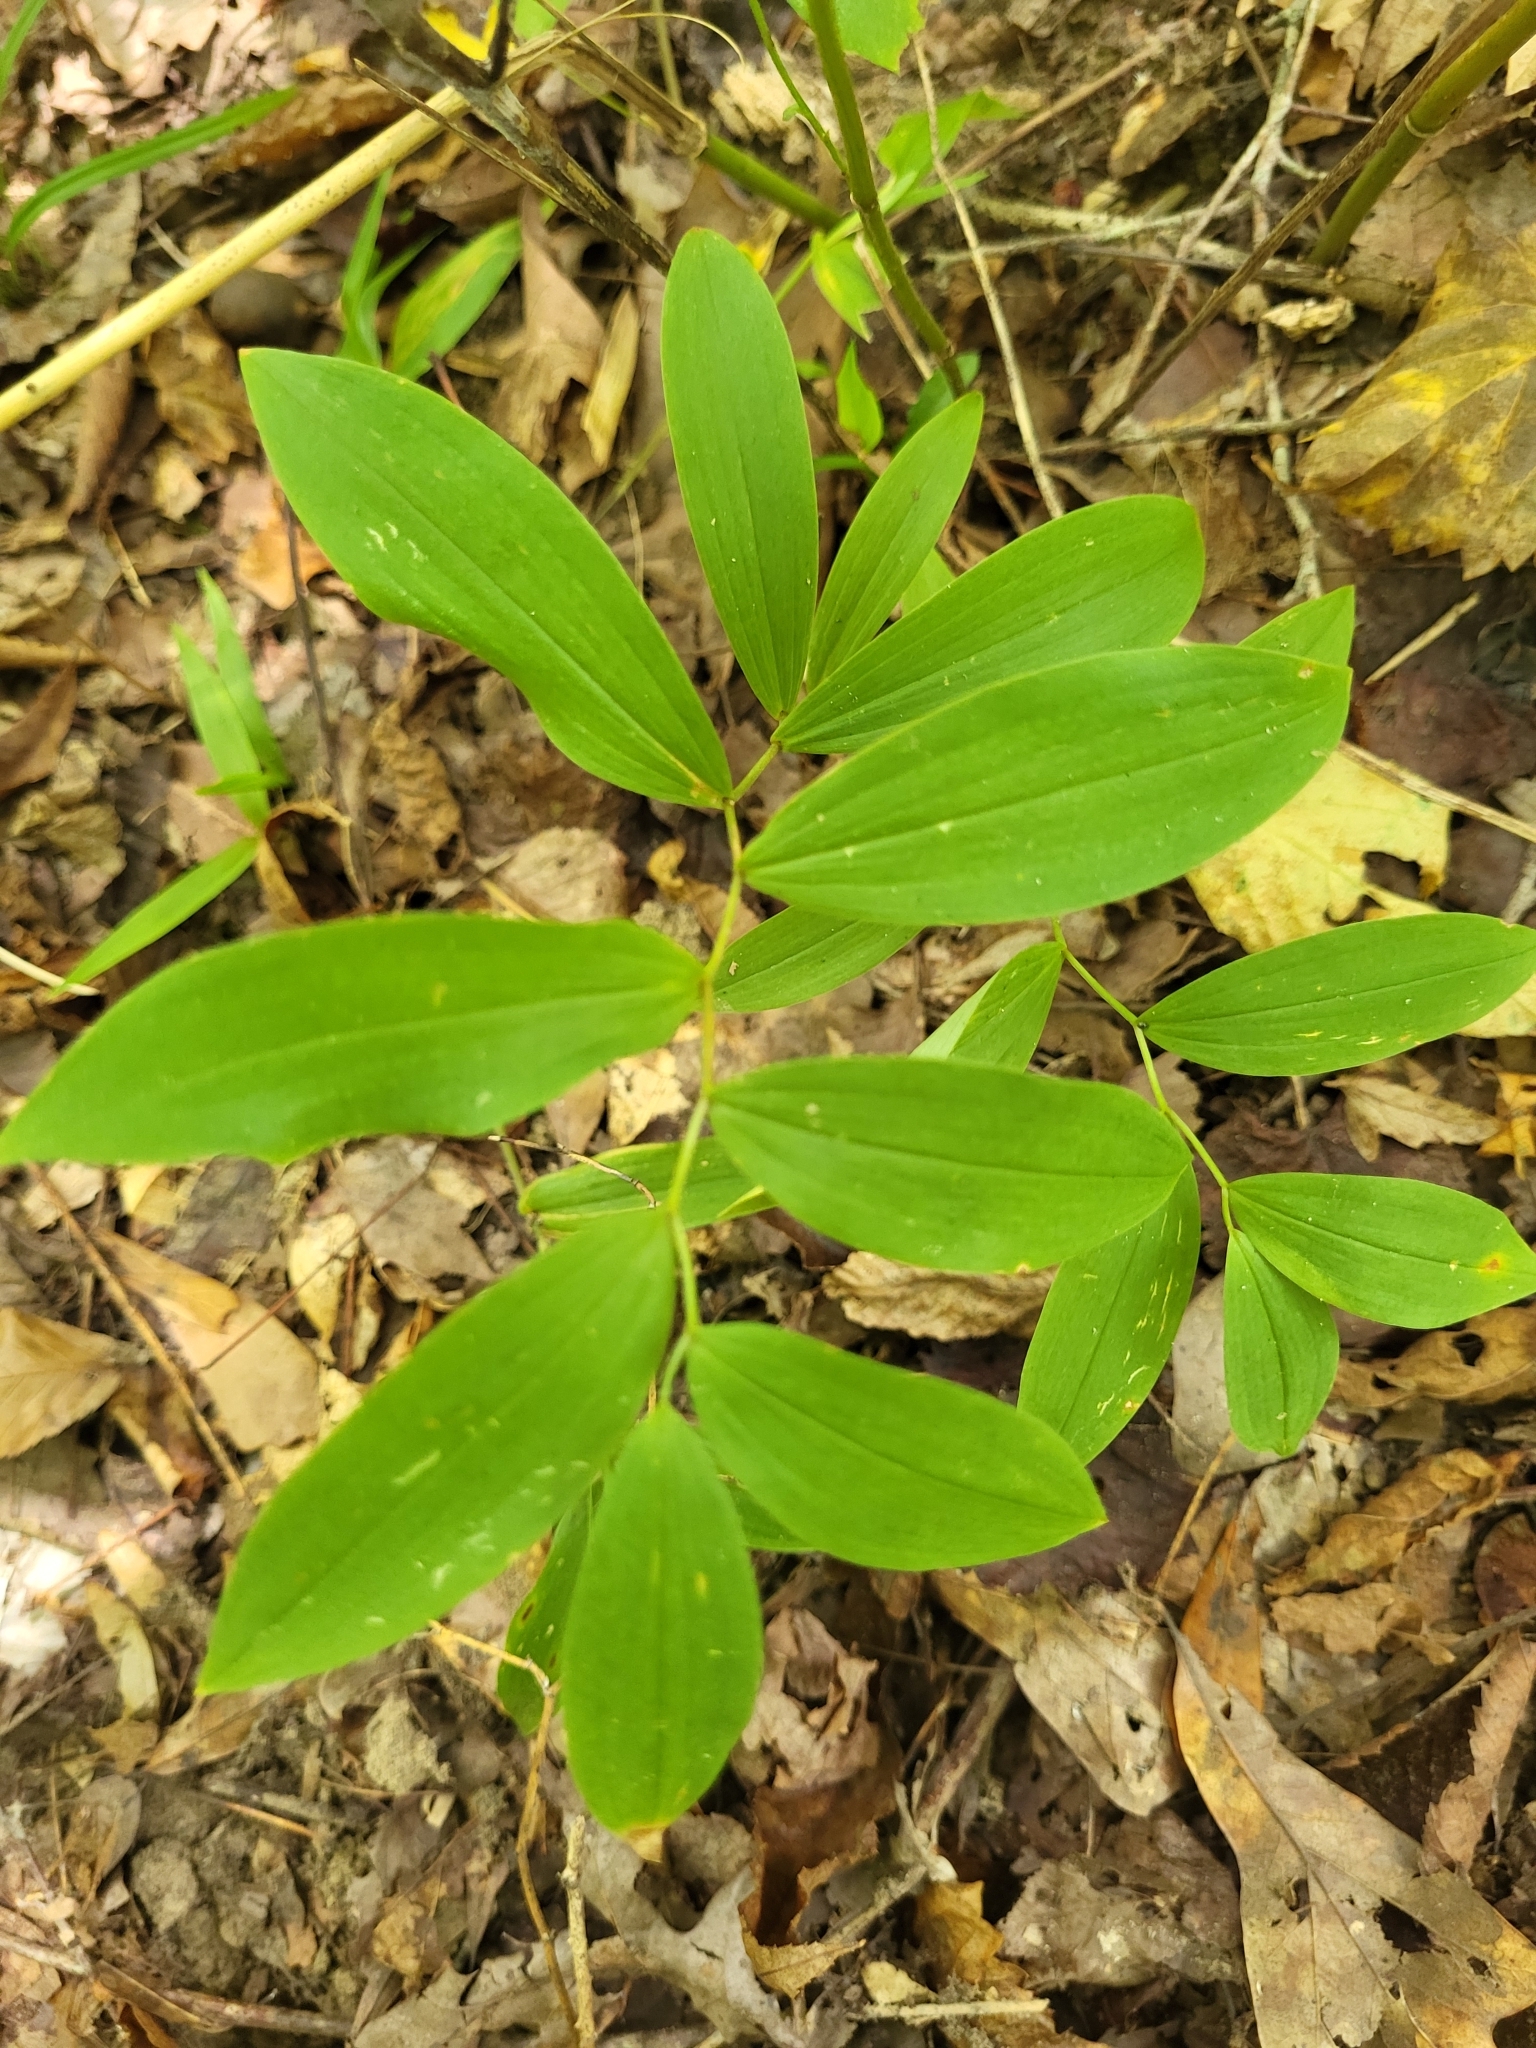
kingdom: Plantae
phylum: Tracheophyta
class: Liliopsida
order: Liliales
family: Colchicaceae
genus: Uvularia
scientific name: Uvularia sessilifolia
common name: Straw-lily
